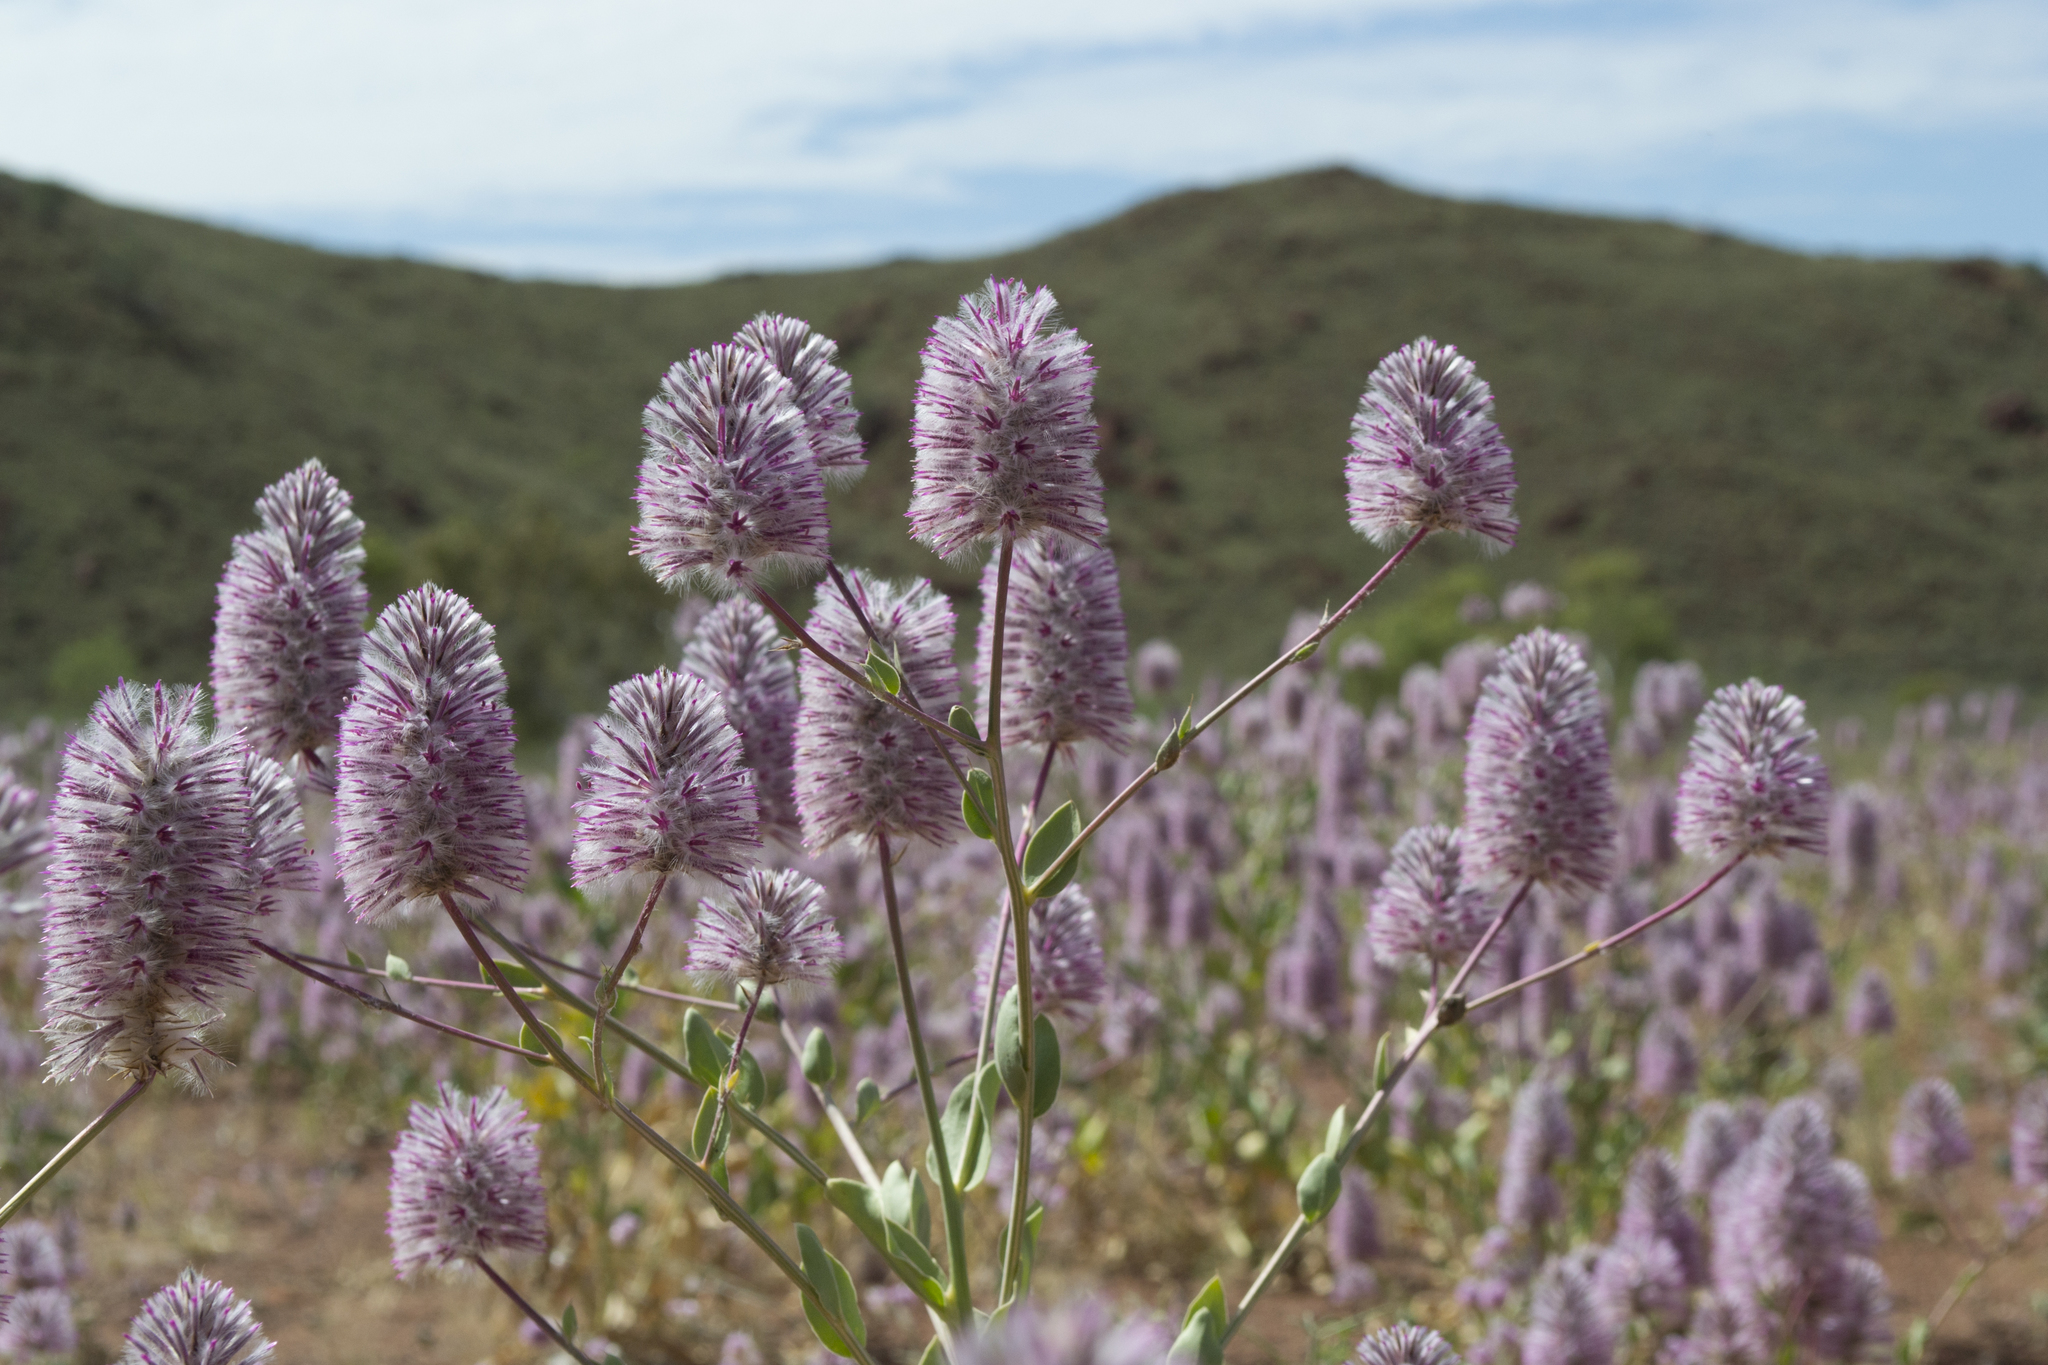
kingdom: Plantae
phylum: Tracheophyta
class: Magnoliopsida
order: Caryophyllales
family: Amaranthaceae
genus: Ptilotus
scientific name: Ptilotus exaltatus
